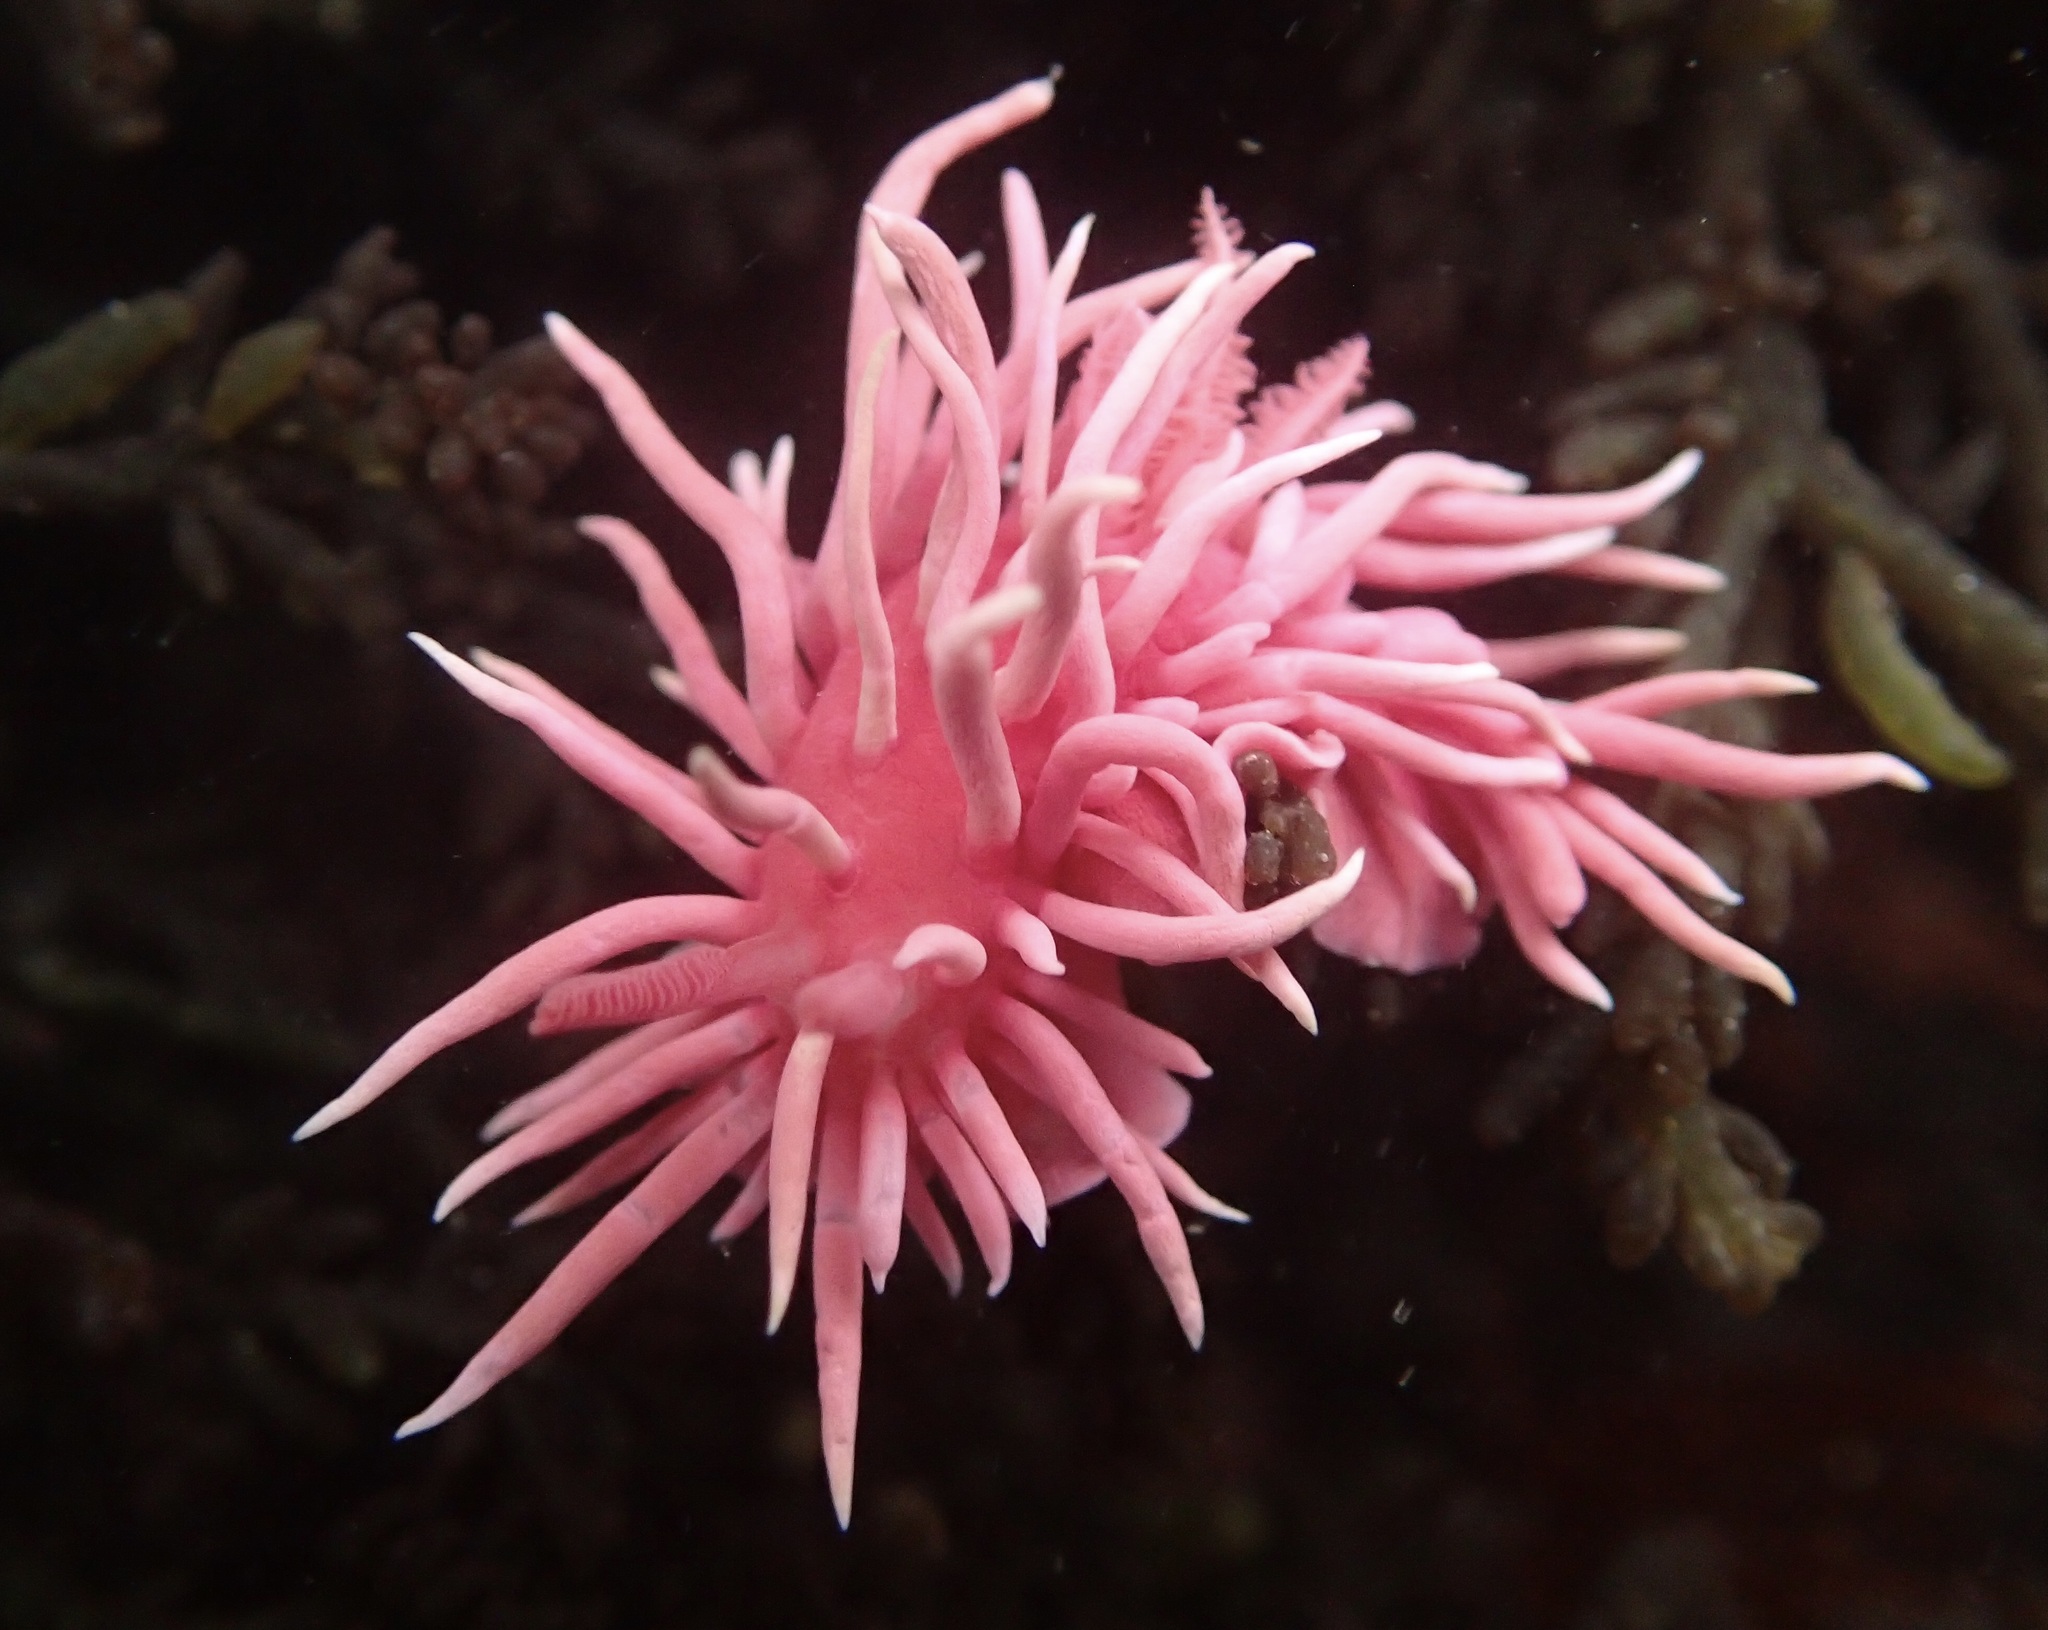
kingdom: Animalia
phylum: Mollusca
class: Gastropoda
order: Nudibranchia
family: Goniodorididae
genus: Okenia
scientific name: Okenia
